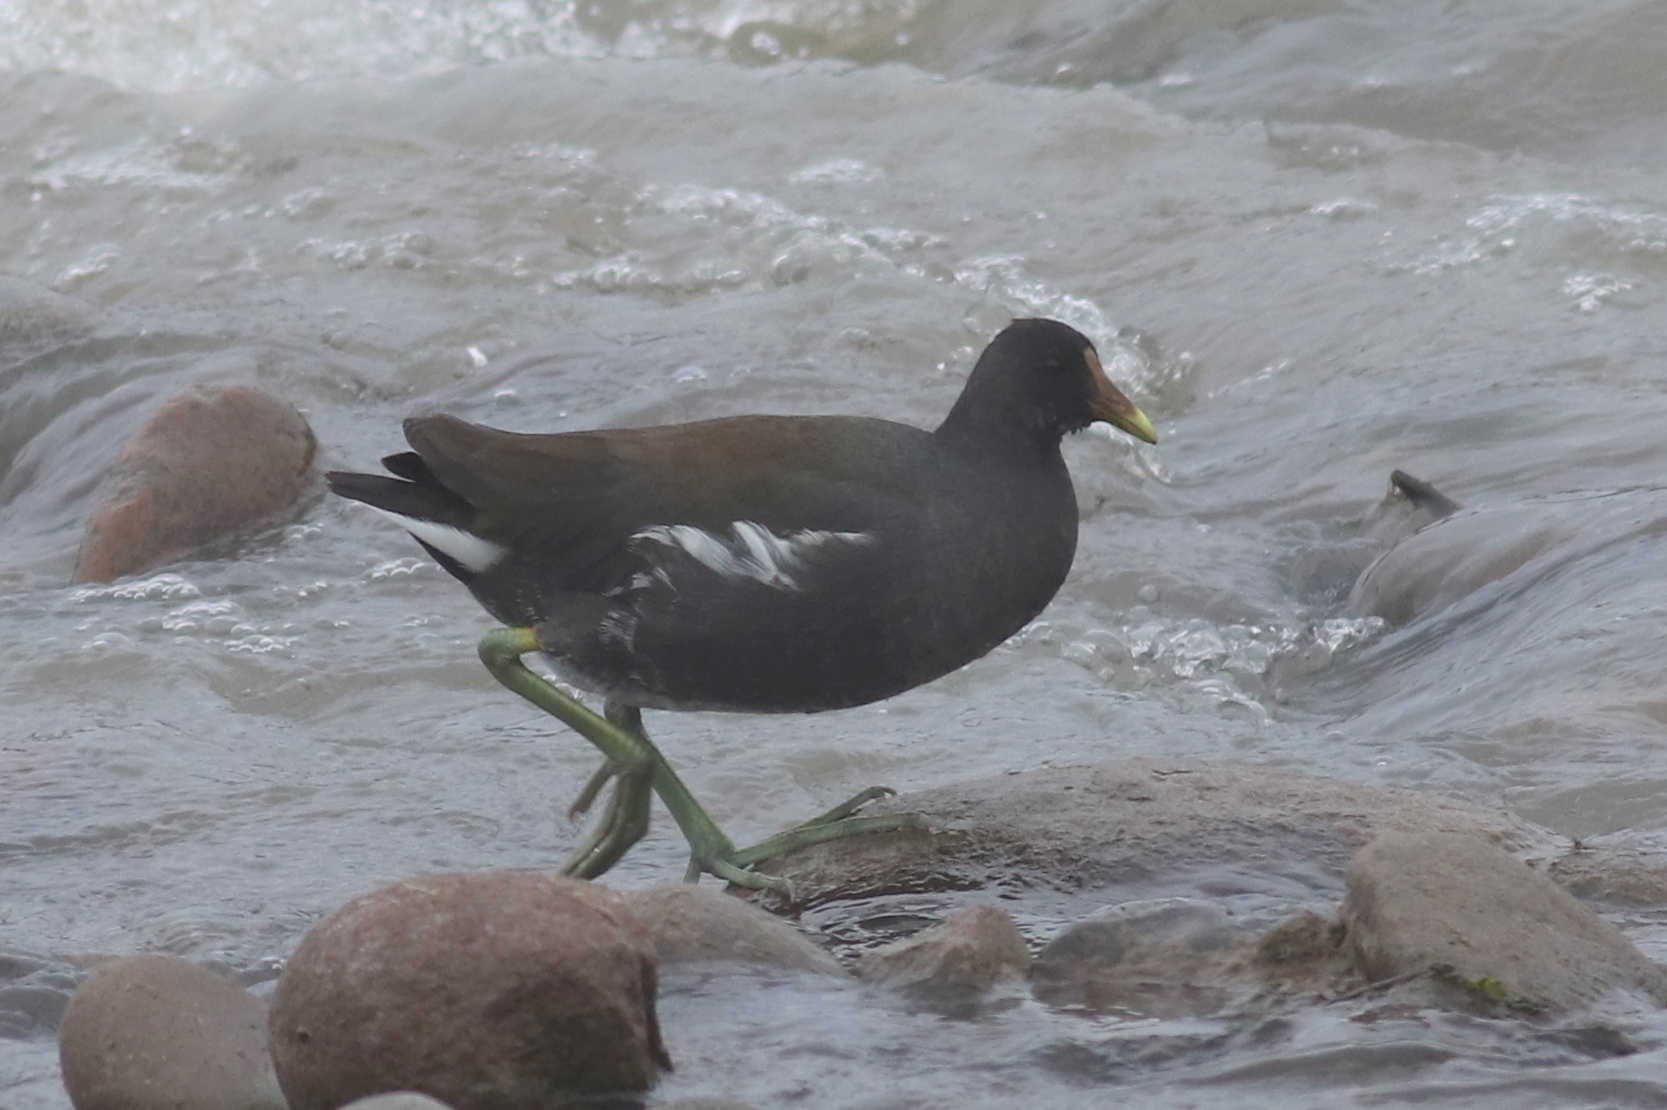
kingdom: Animalia
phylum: Chordata
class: Aves
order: Gruiformes
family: Rallidae
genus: Gallinula
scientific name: Gallinula chloropus
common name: Common moorhen
